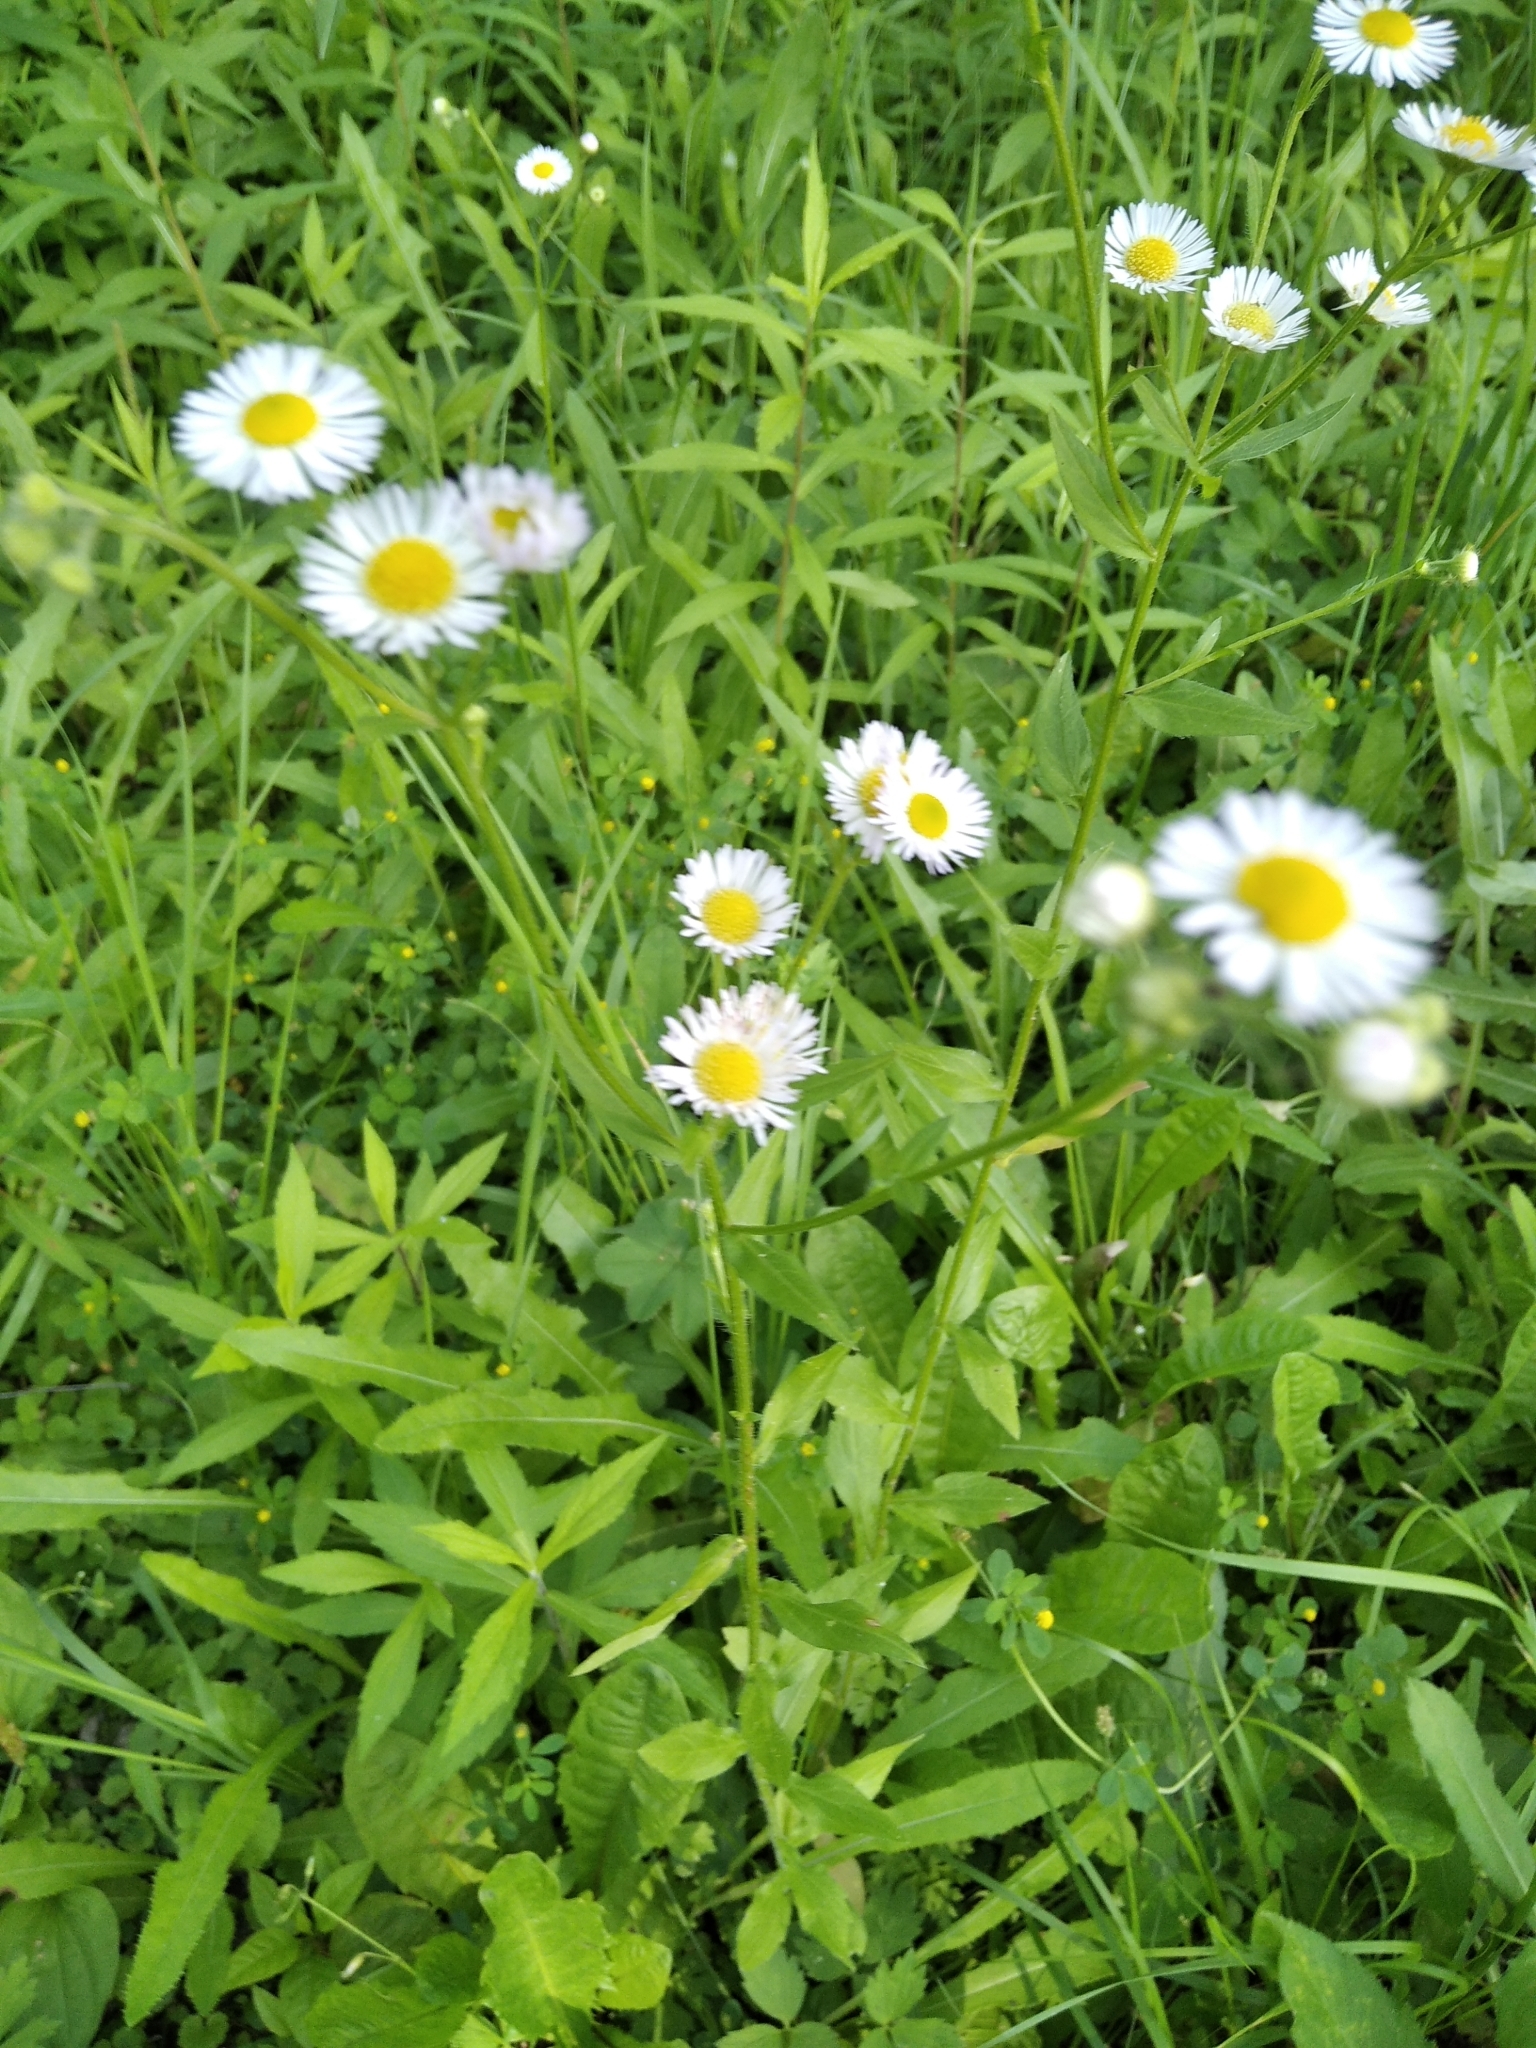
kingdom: Plantae
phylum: Tracheophyta
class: Magnoliopsida
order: Asterales
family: Asteraceae
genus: Erigeron
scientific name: Erigeron annuus
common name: Tall fleabane
